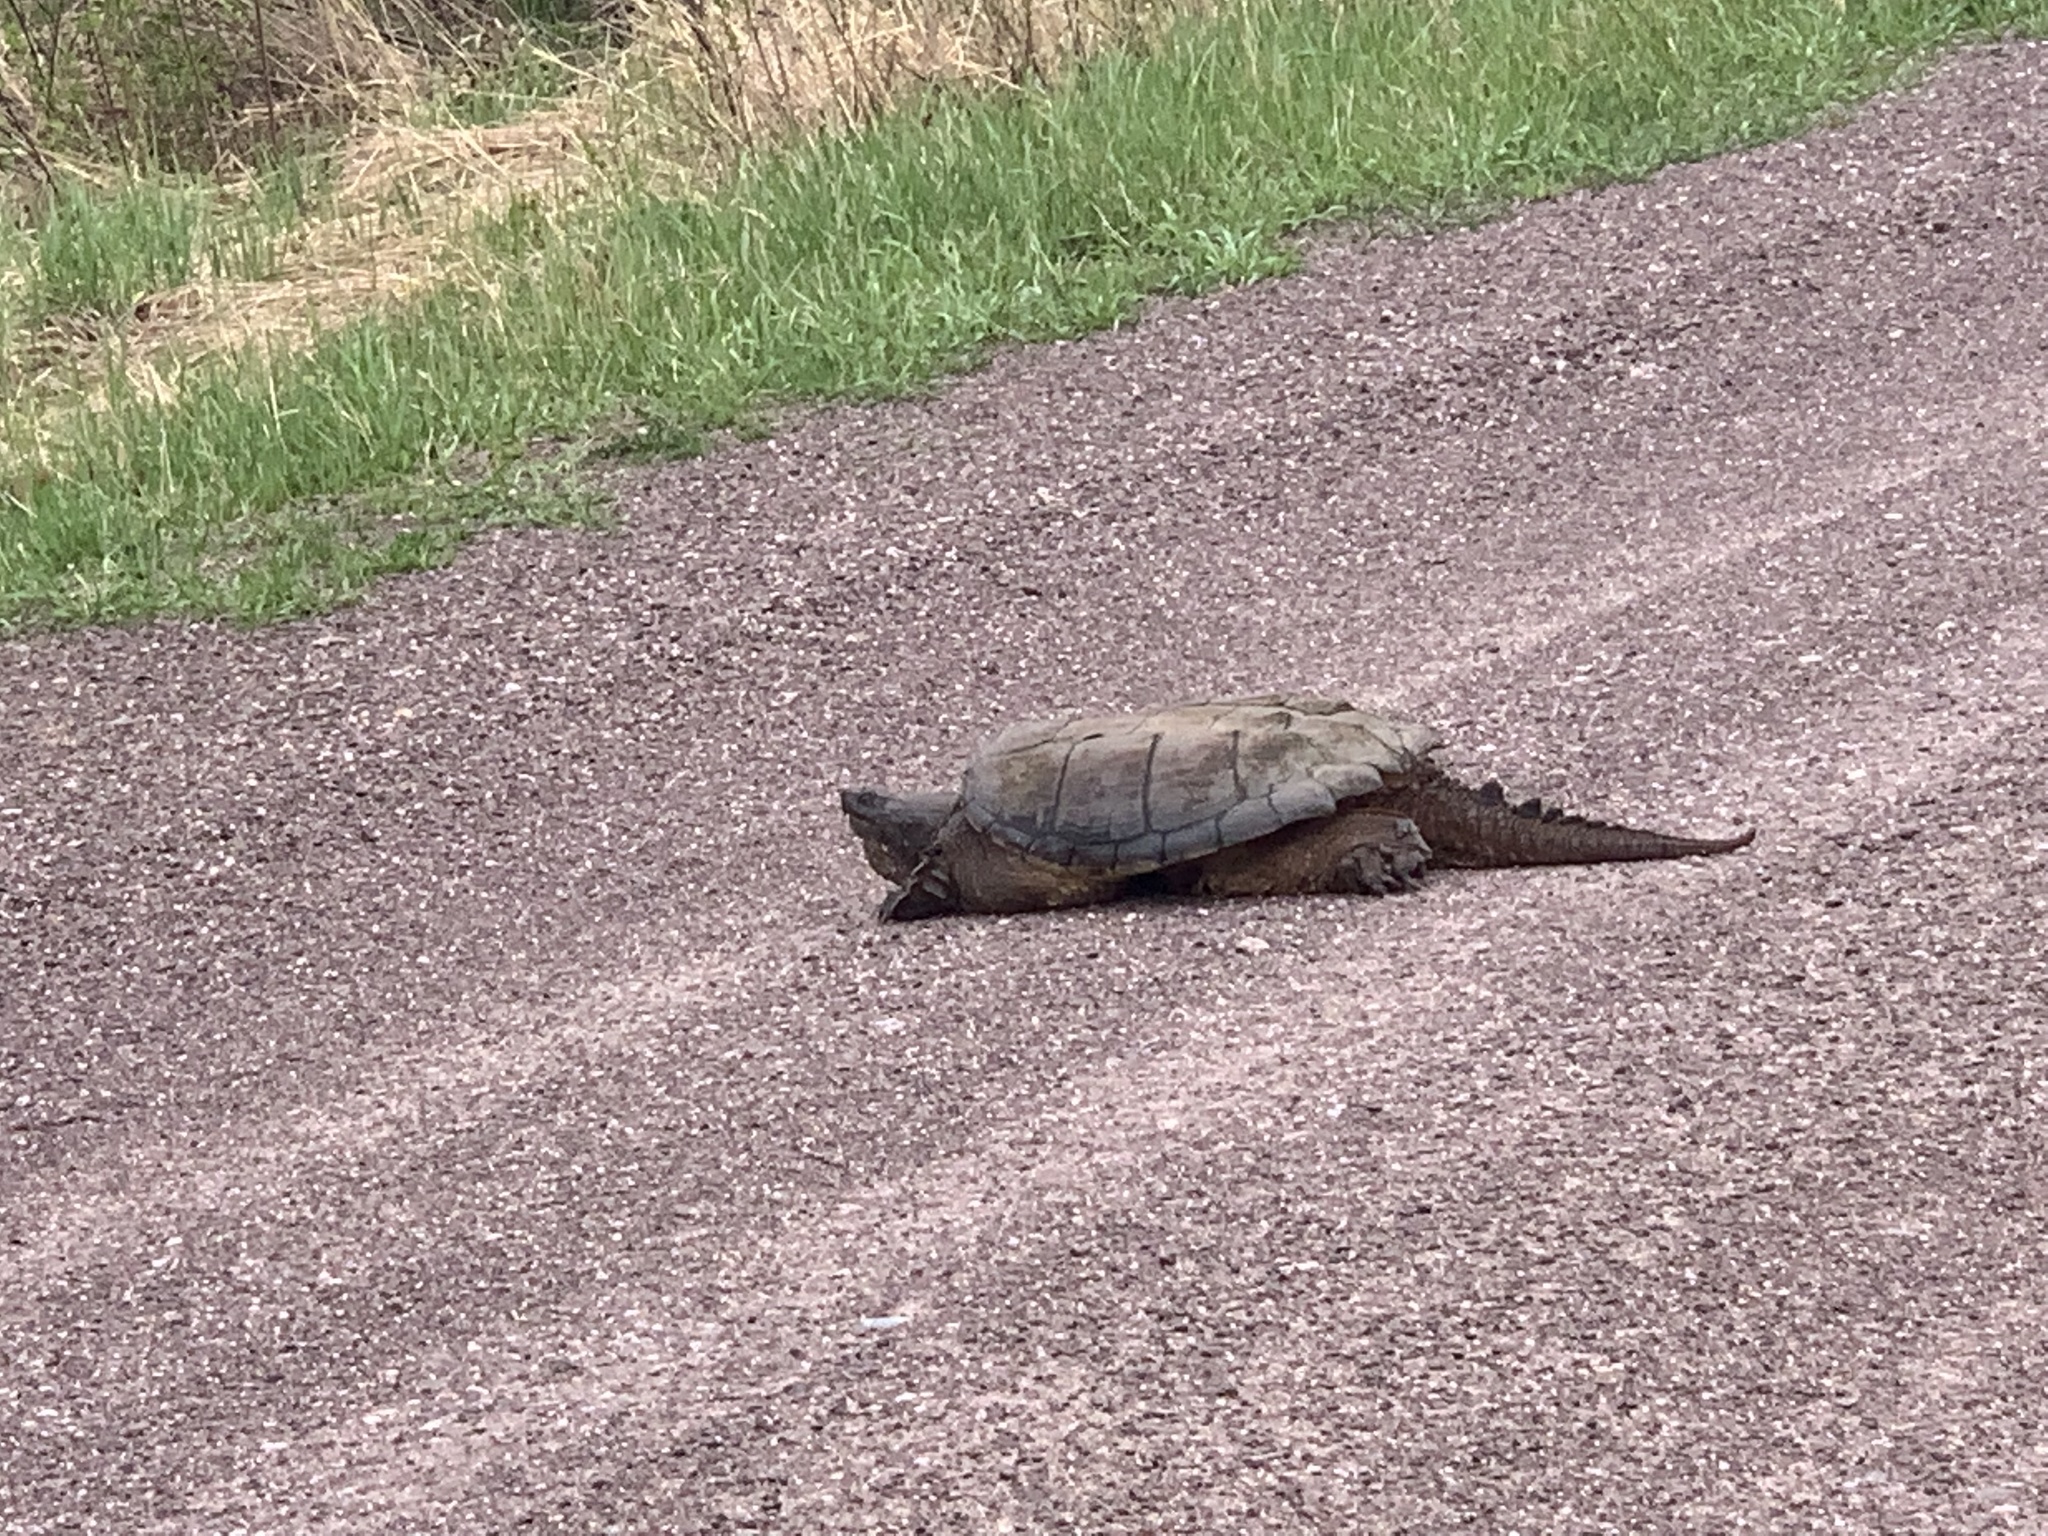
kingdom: Animalia
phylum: Chordata
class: Testudines
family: Chelydridae
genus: Chelydra
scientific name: Chelydra serpentina
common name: Common snapping turtle
